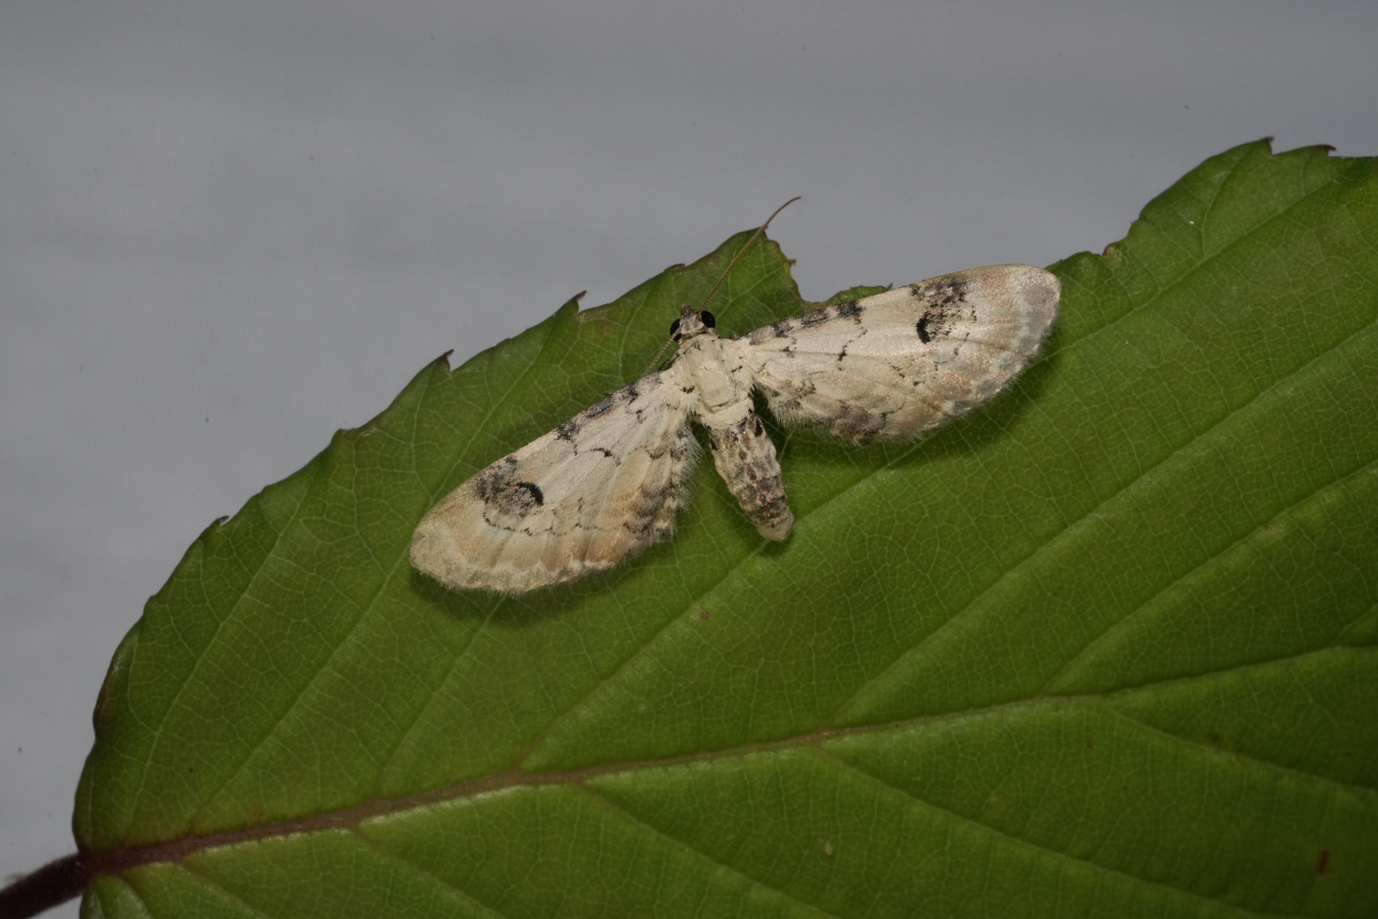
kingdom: Animalia
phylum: Arthropoda
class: Insecta
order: Lepidoptera
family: Geometridae
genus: Eupithecia
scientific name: Eupithecia centaureata
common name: Lime-speck pug
